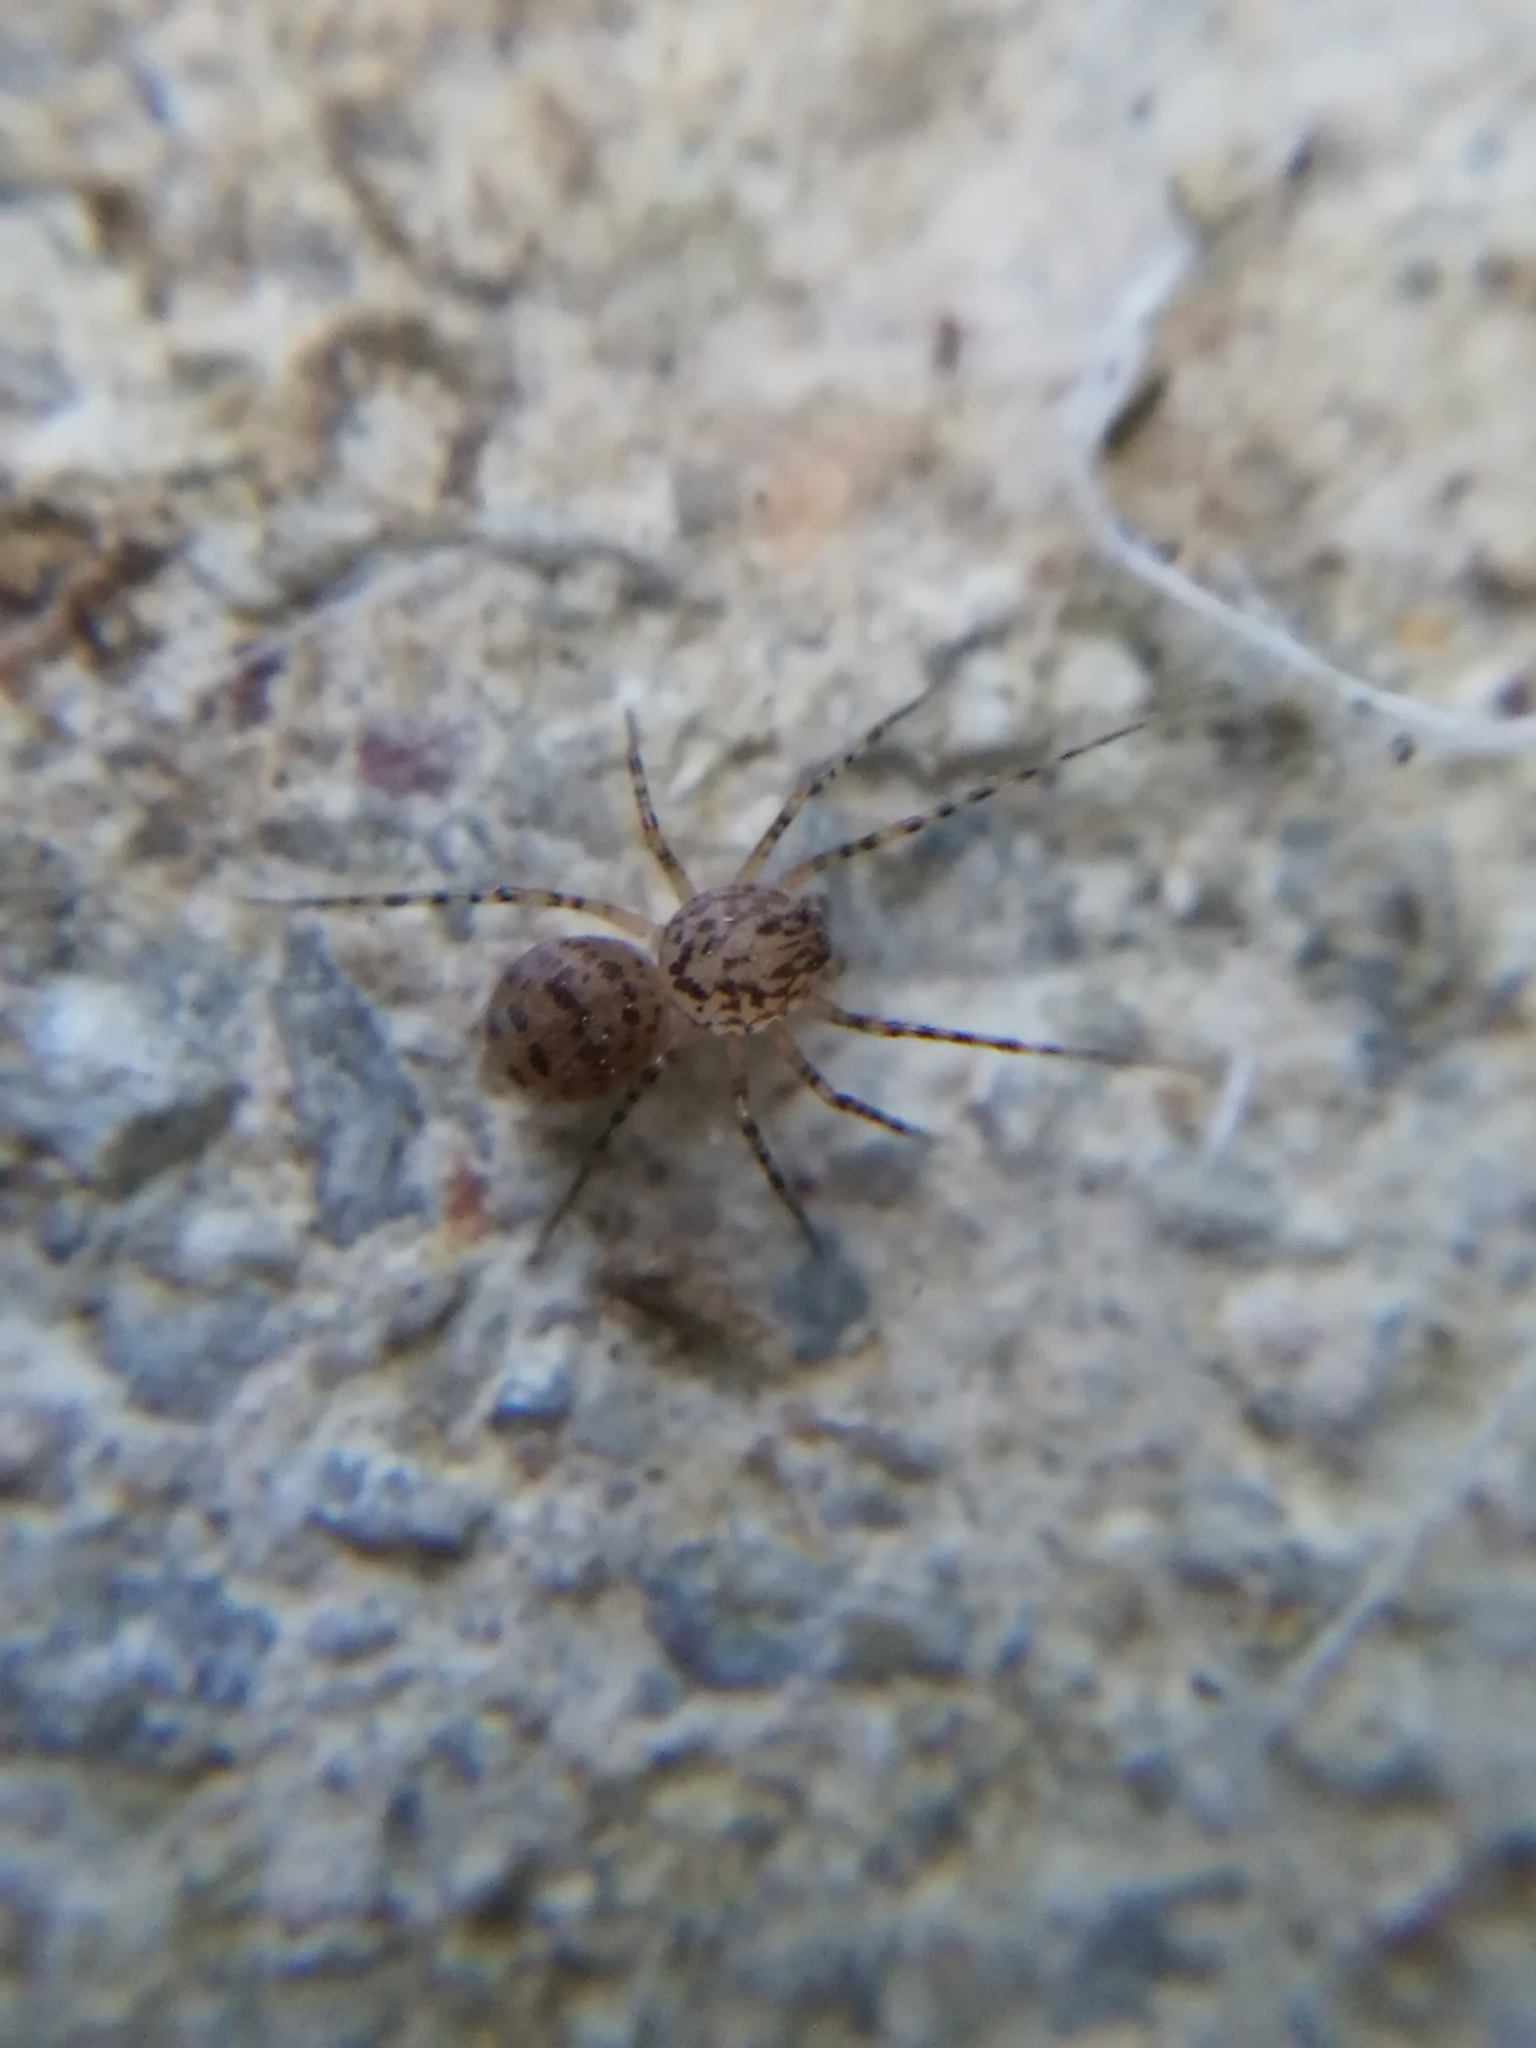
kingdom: Animalia
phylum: Arthropoda
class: Arachnida
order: Araneae
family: Scytodidae
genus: Scytodes
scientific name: Scytodes thoracica
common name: Spitting spider
